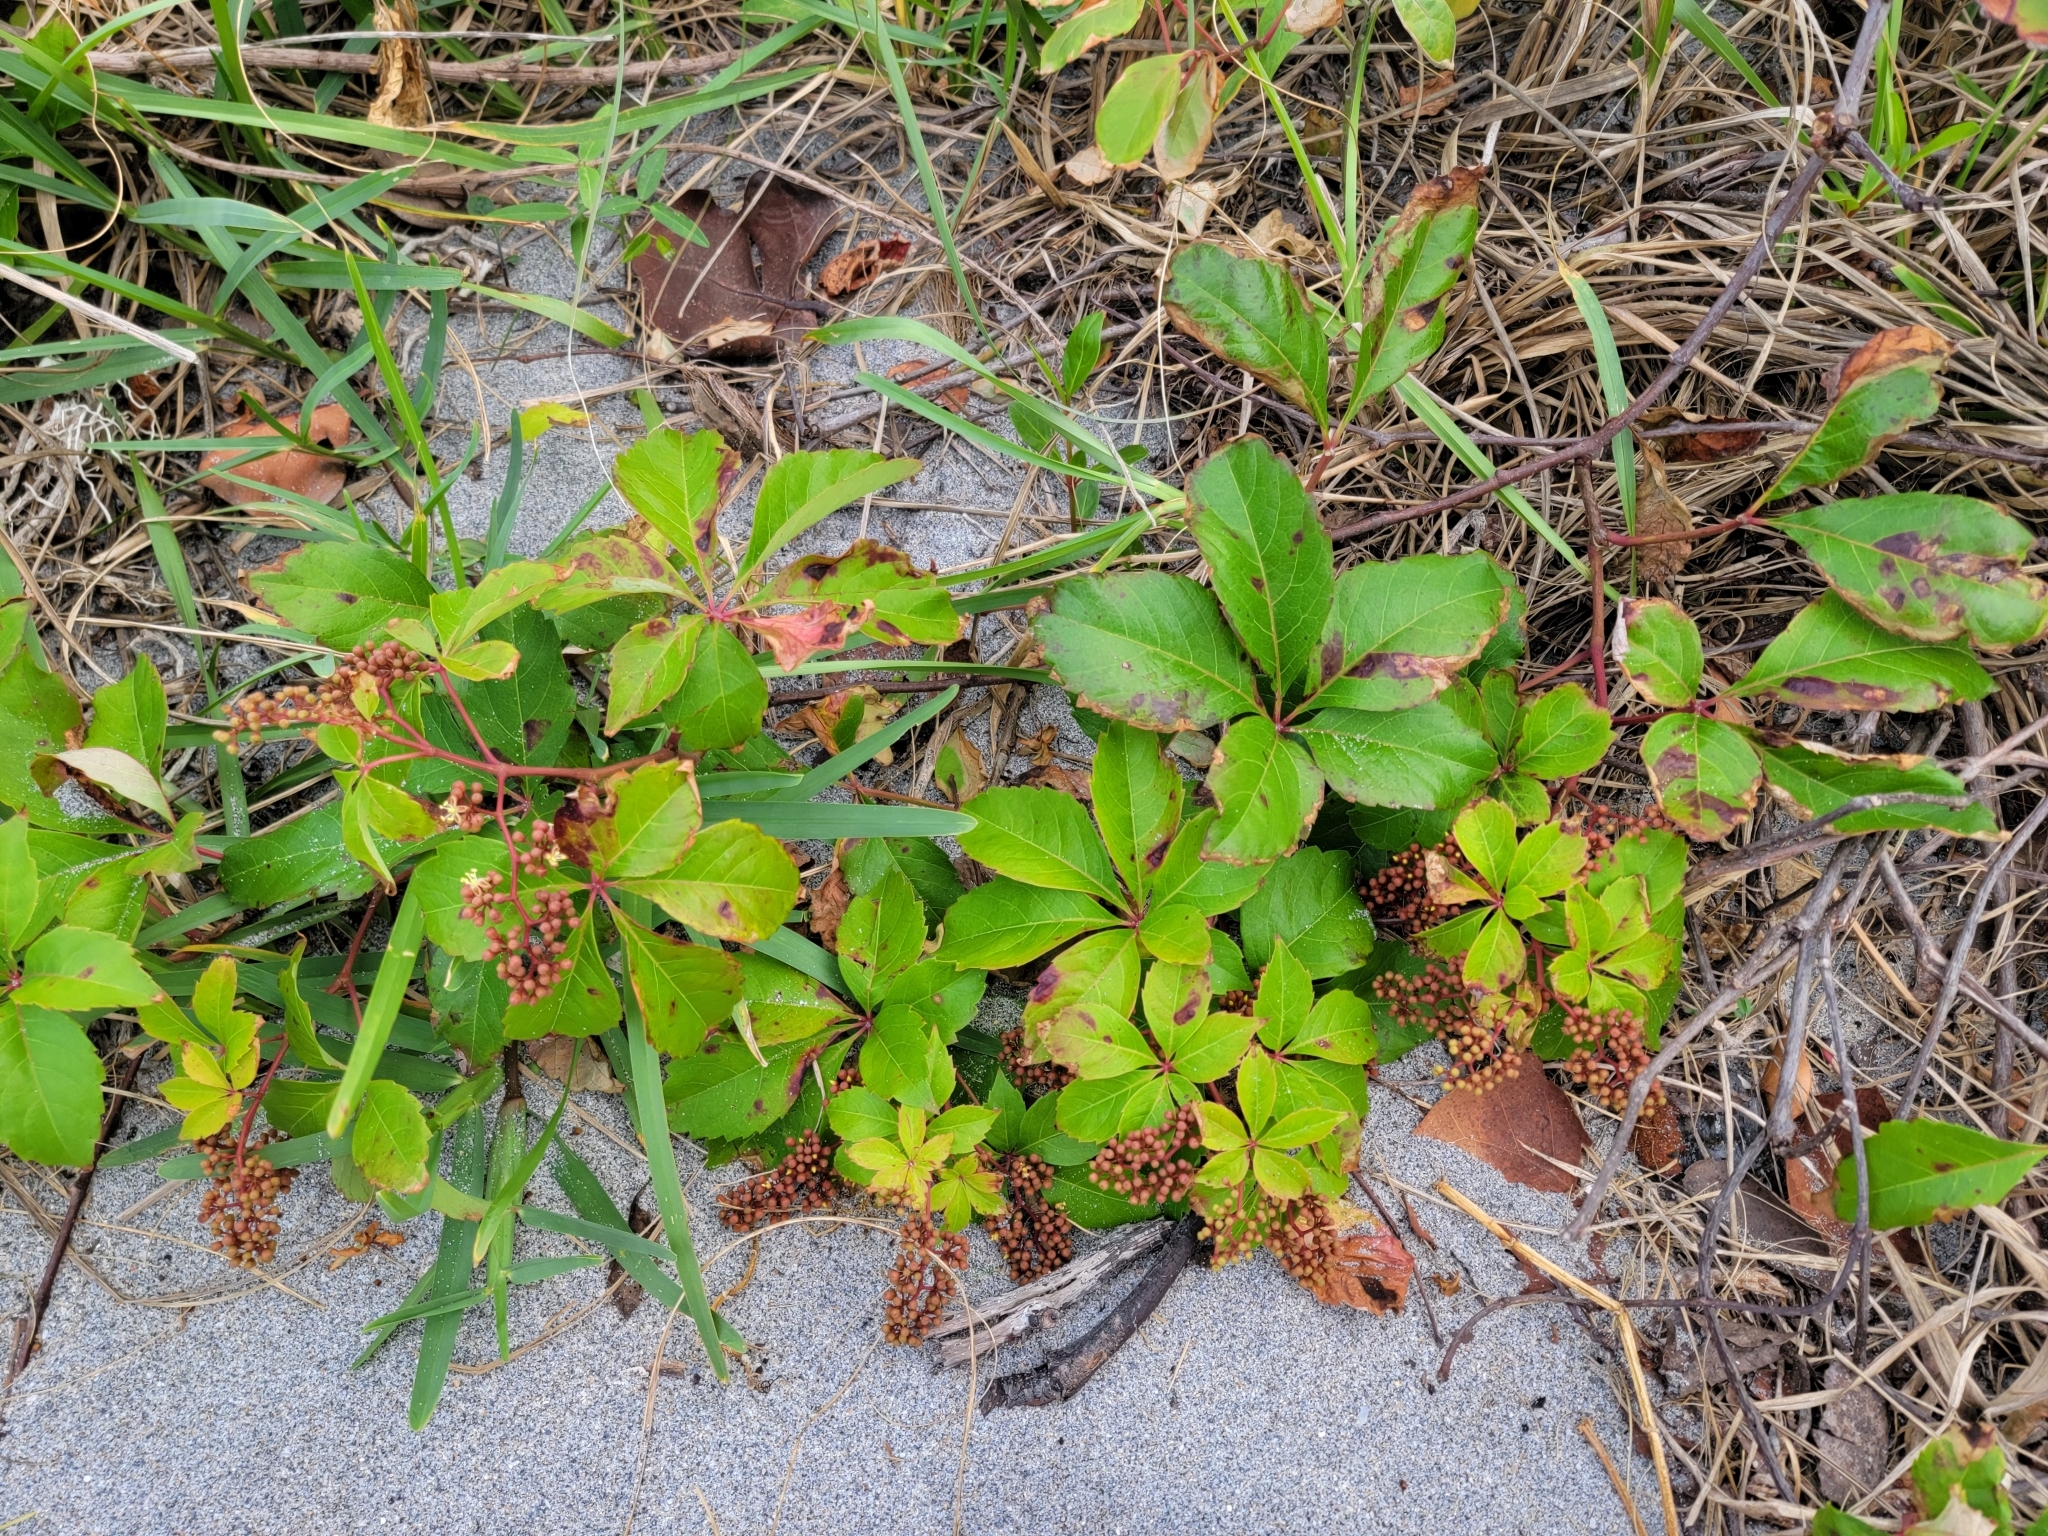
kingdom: Plantae
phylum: Tracheophyta
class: Magnoliopsida
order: Vitales
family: Vitaceae
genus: Parthenocissus
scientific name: Parthenocissus quinquefolia
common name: Virginia-creeper
